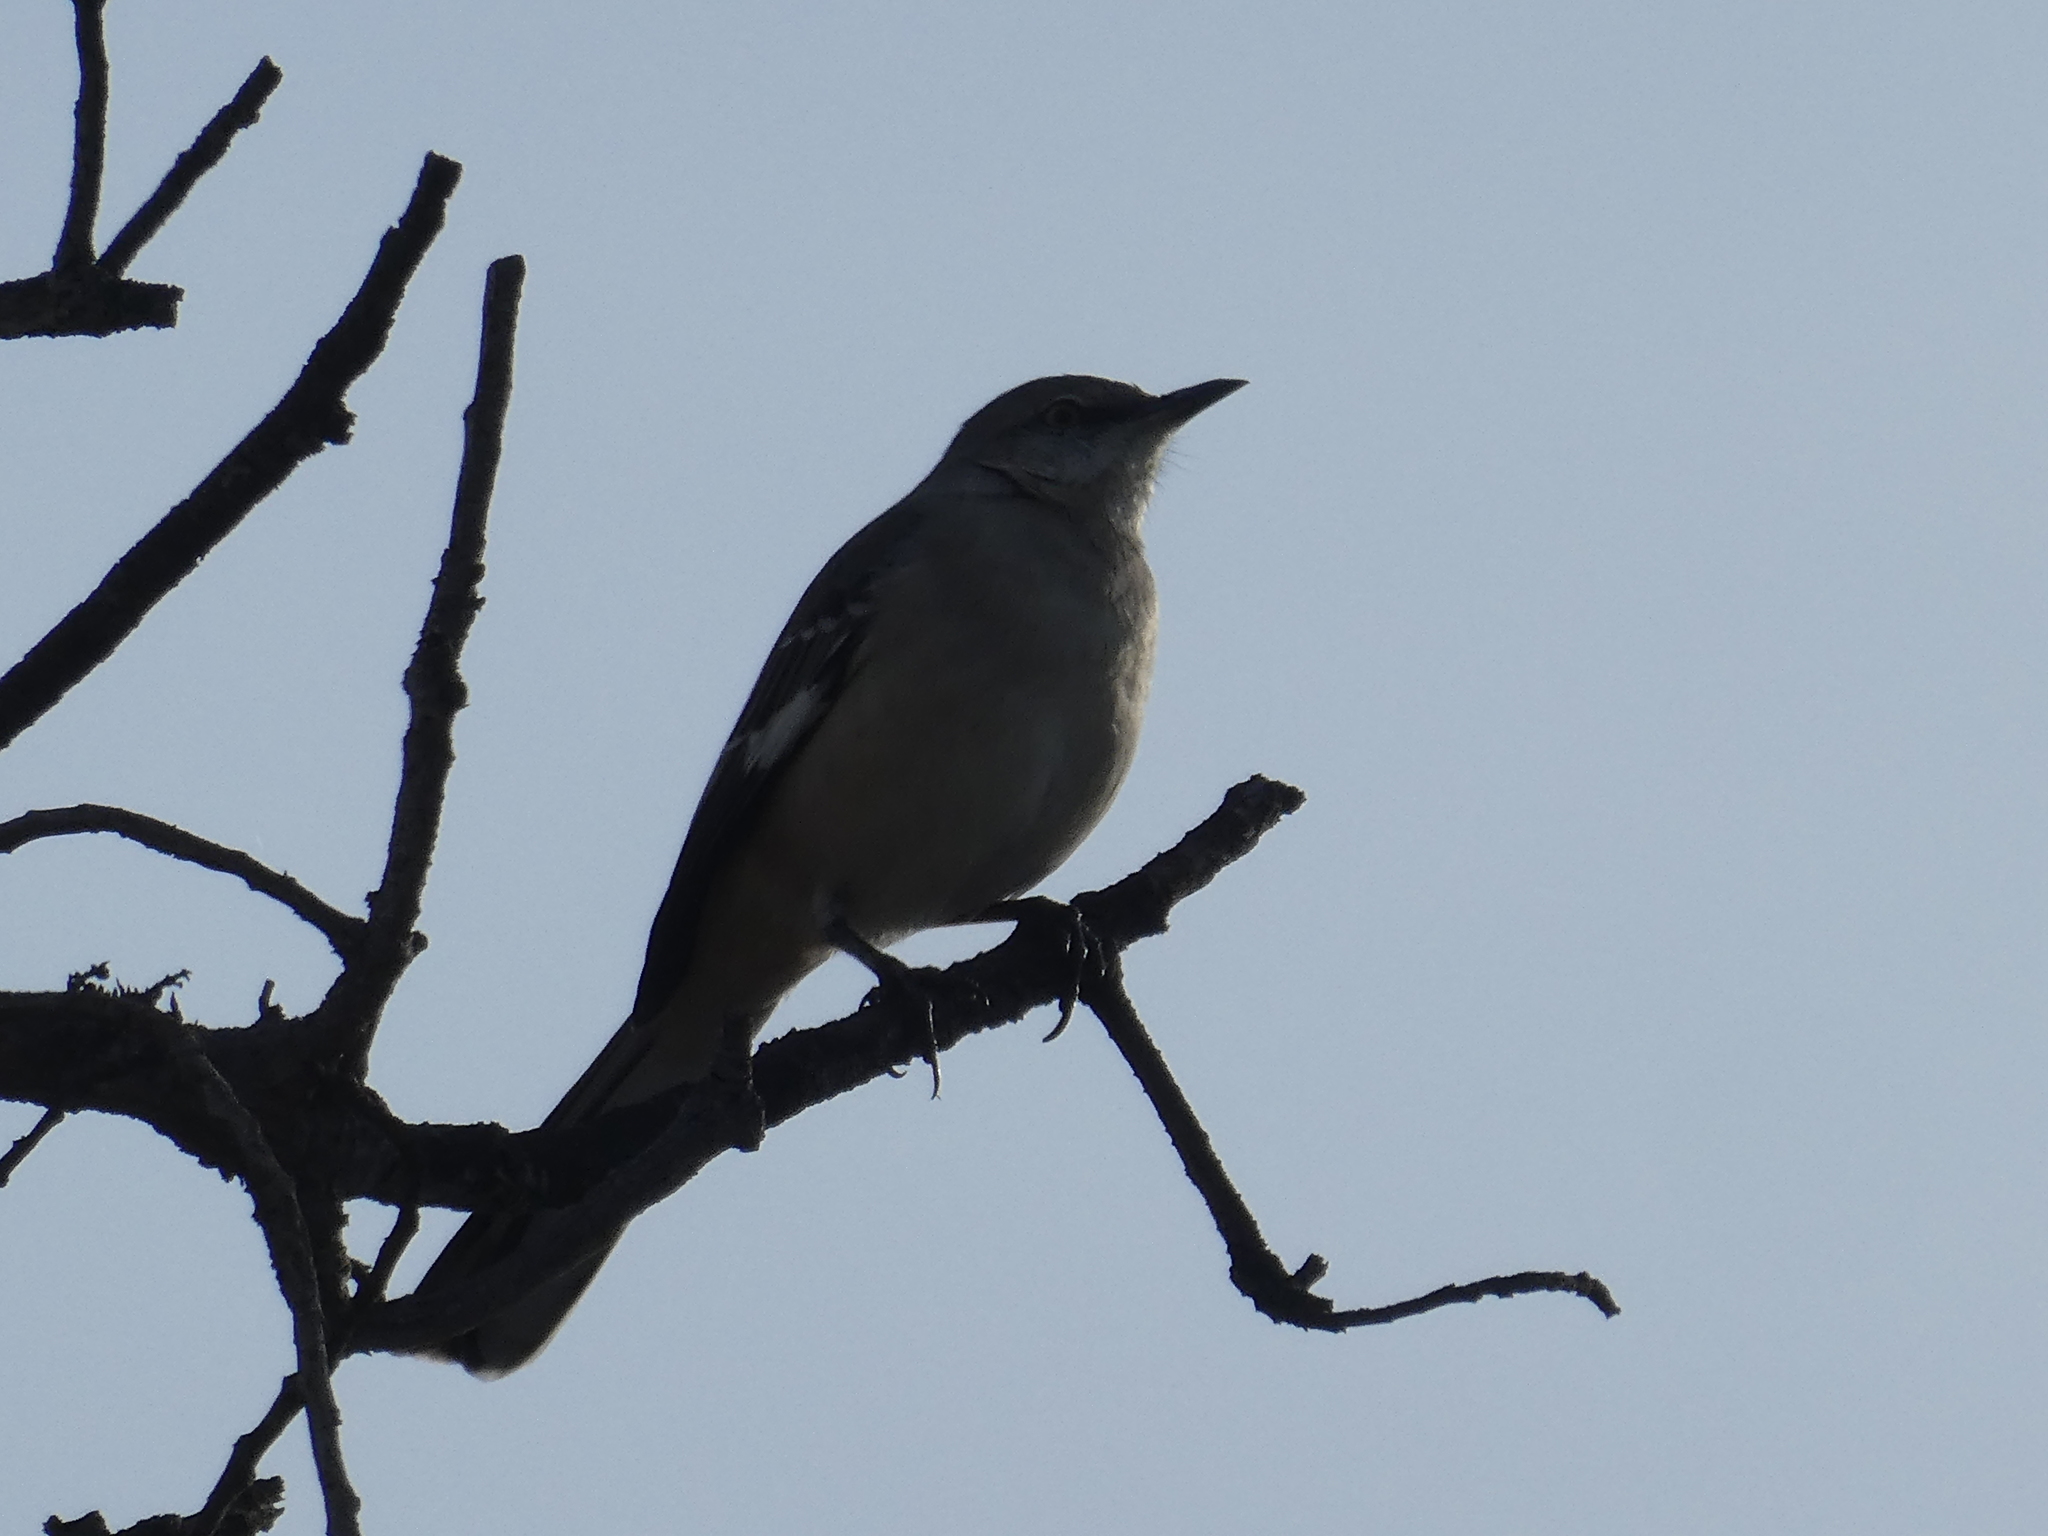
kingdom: Animalia
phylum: Chordata
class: Aves
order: Passeriformes
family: Mimidae
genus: Mimus
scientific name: Mimus polyglottos
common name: Northern mockingbird
